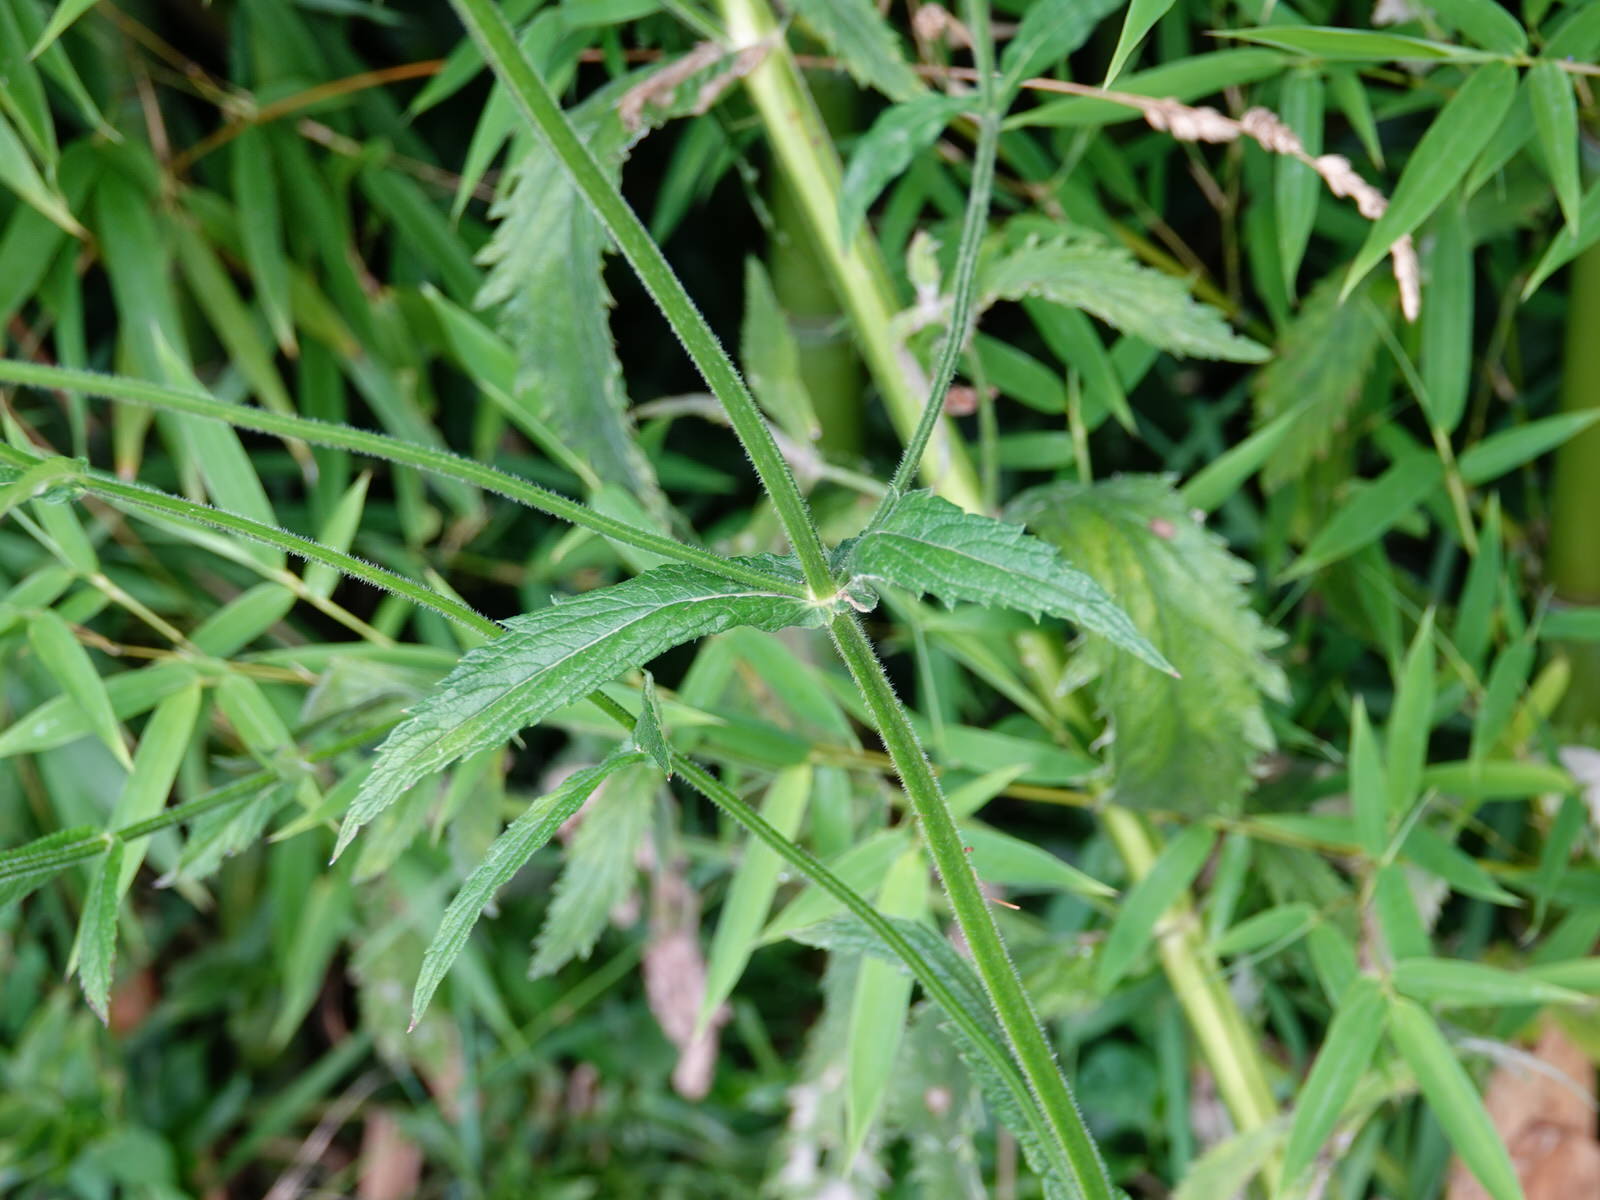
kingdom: Plantae
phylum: Tracheophyta
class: Magnoliopsida
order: Lamiales
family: Verbenaceae
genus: Verbena
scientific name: Verbena incompta
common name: Purpletop vervain
